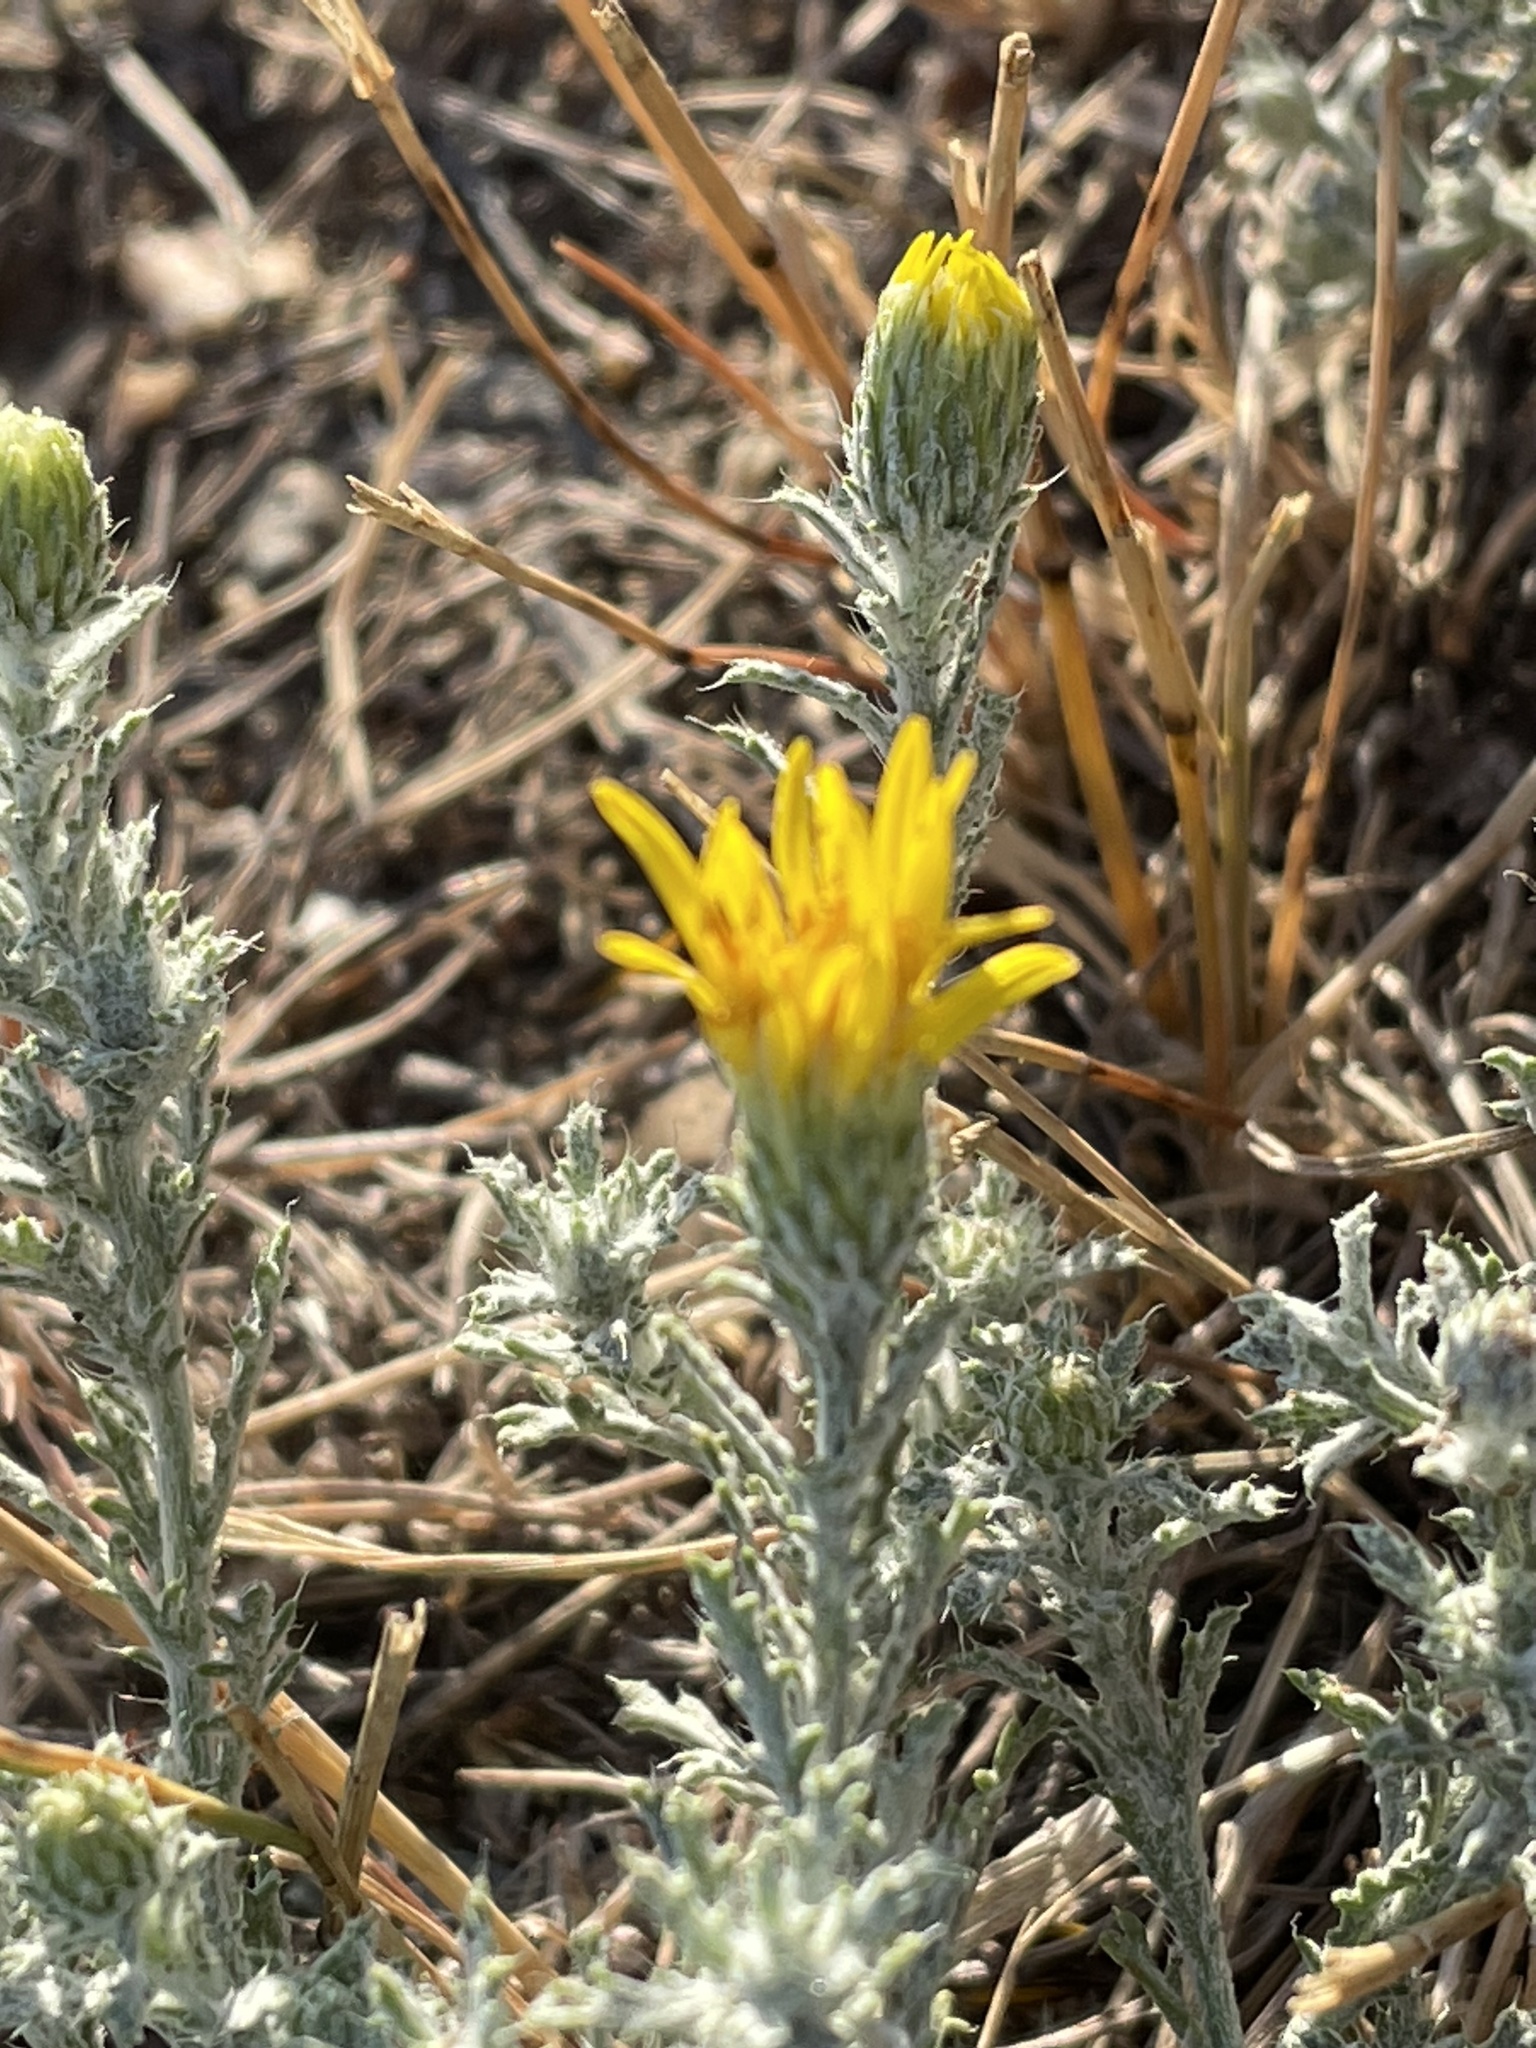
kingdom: Plantae
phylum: Tracheophyta
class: Magnoliopsida
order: Asterales
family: Asteraceae
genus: Xanthisma
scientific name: Xanthisma spinulosum
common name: Spiny goldenweed
